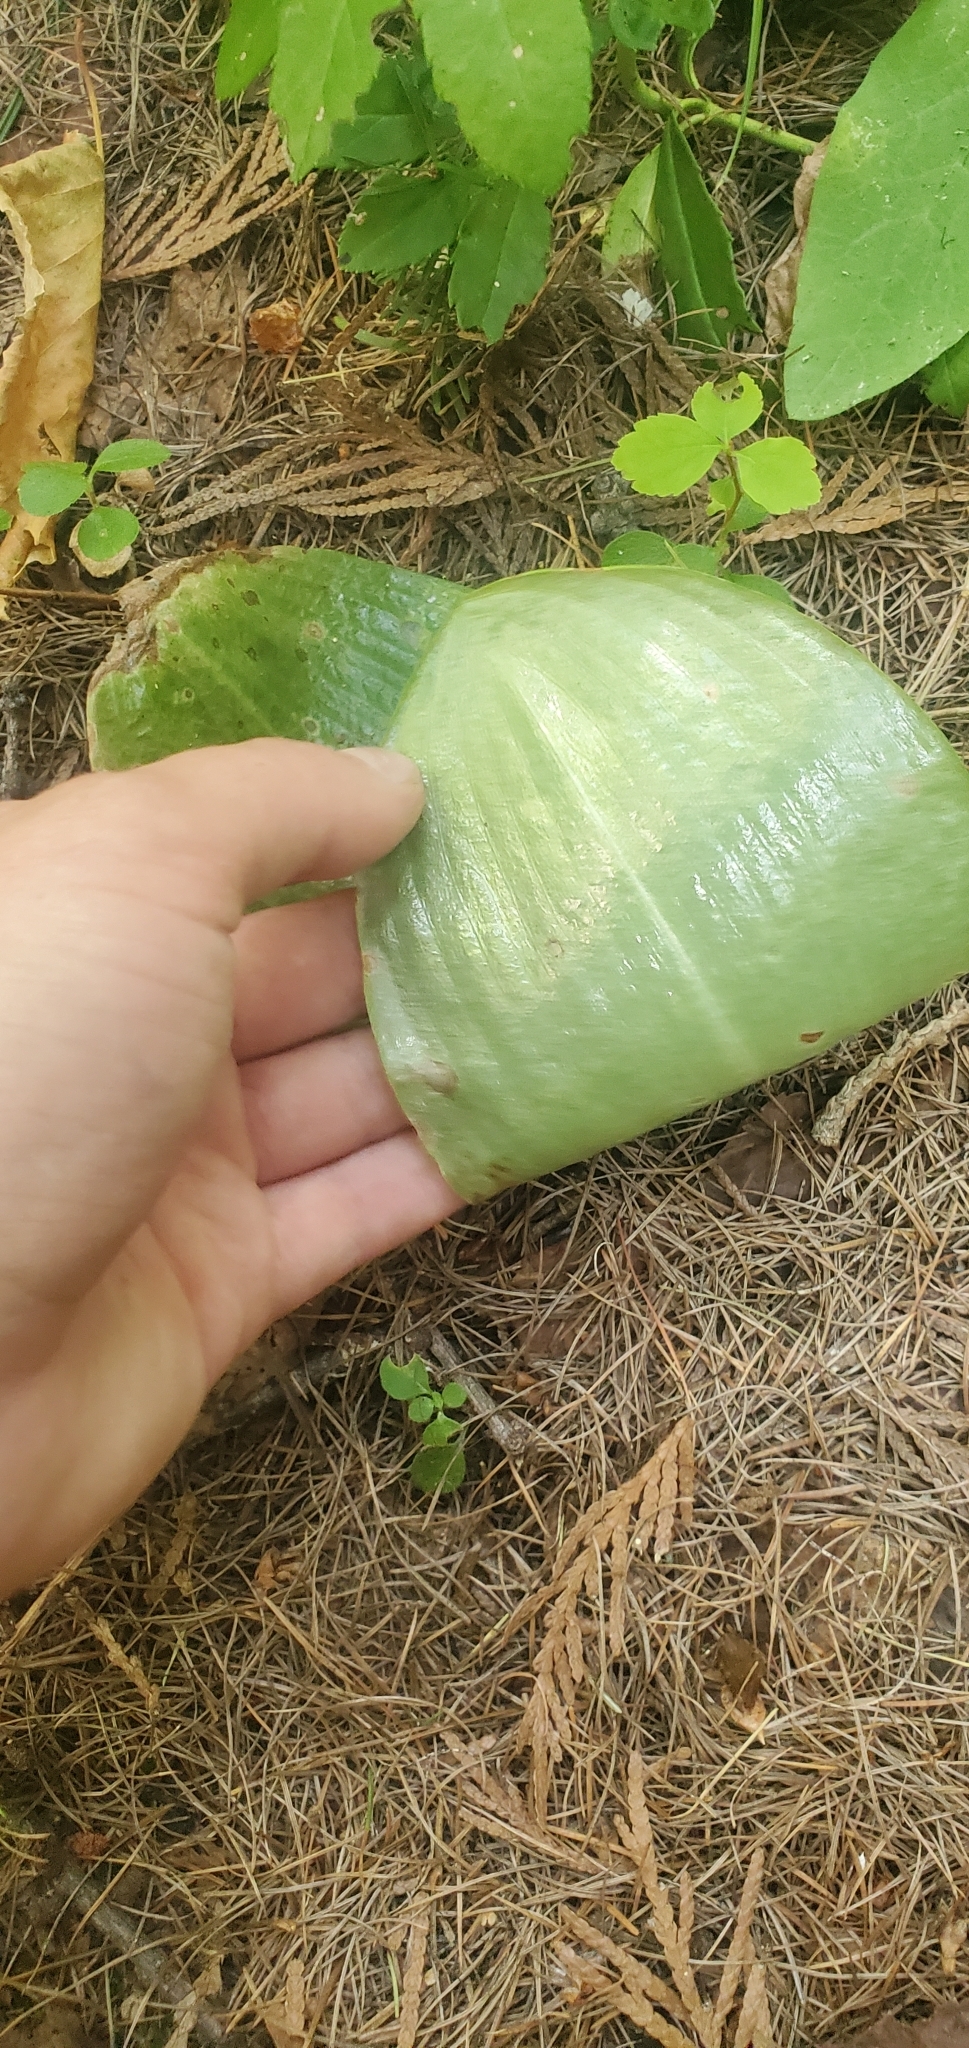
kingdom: Plantae
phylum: Tracheophyta
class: Liliopsida
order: Asparagales
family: Orchidaceae
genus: Platanthera
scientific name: Platanthera orbiculata
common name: Large round-leaved orchid
